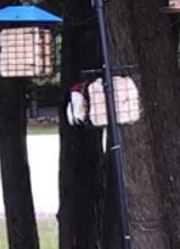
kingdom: Animalia
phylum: Chordata
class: Aves
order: Piciformes
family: Picidae
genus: Melanerpes
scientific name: Melanerpes erythrocephalus
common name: Red-headed woodpecker
